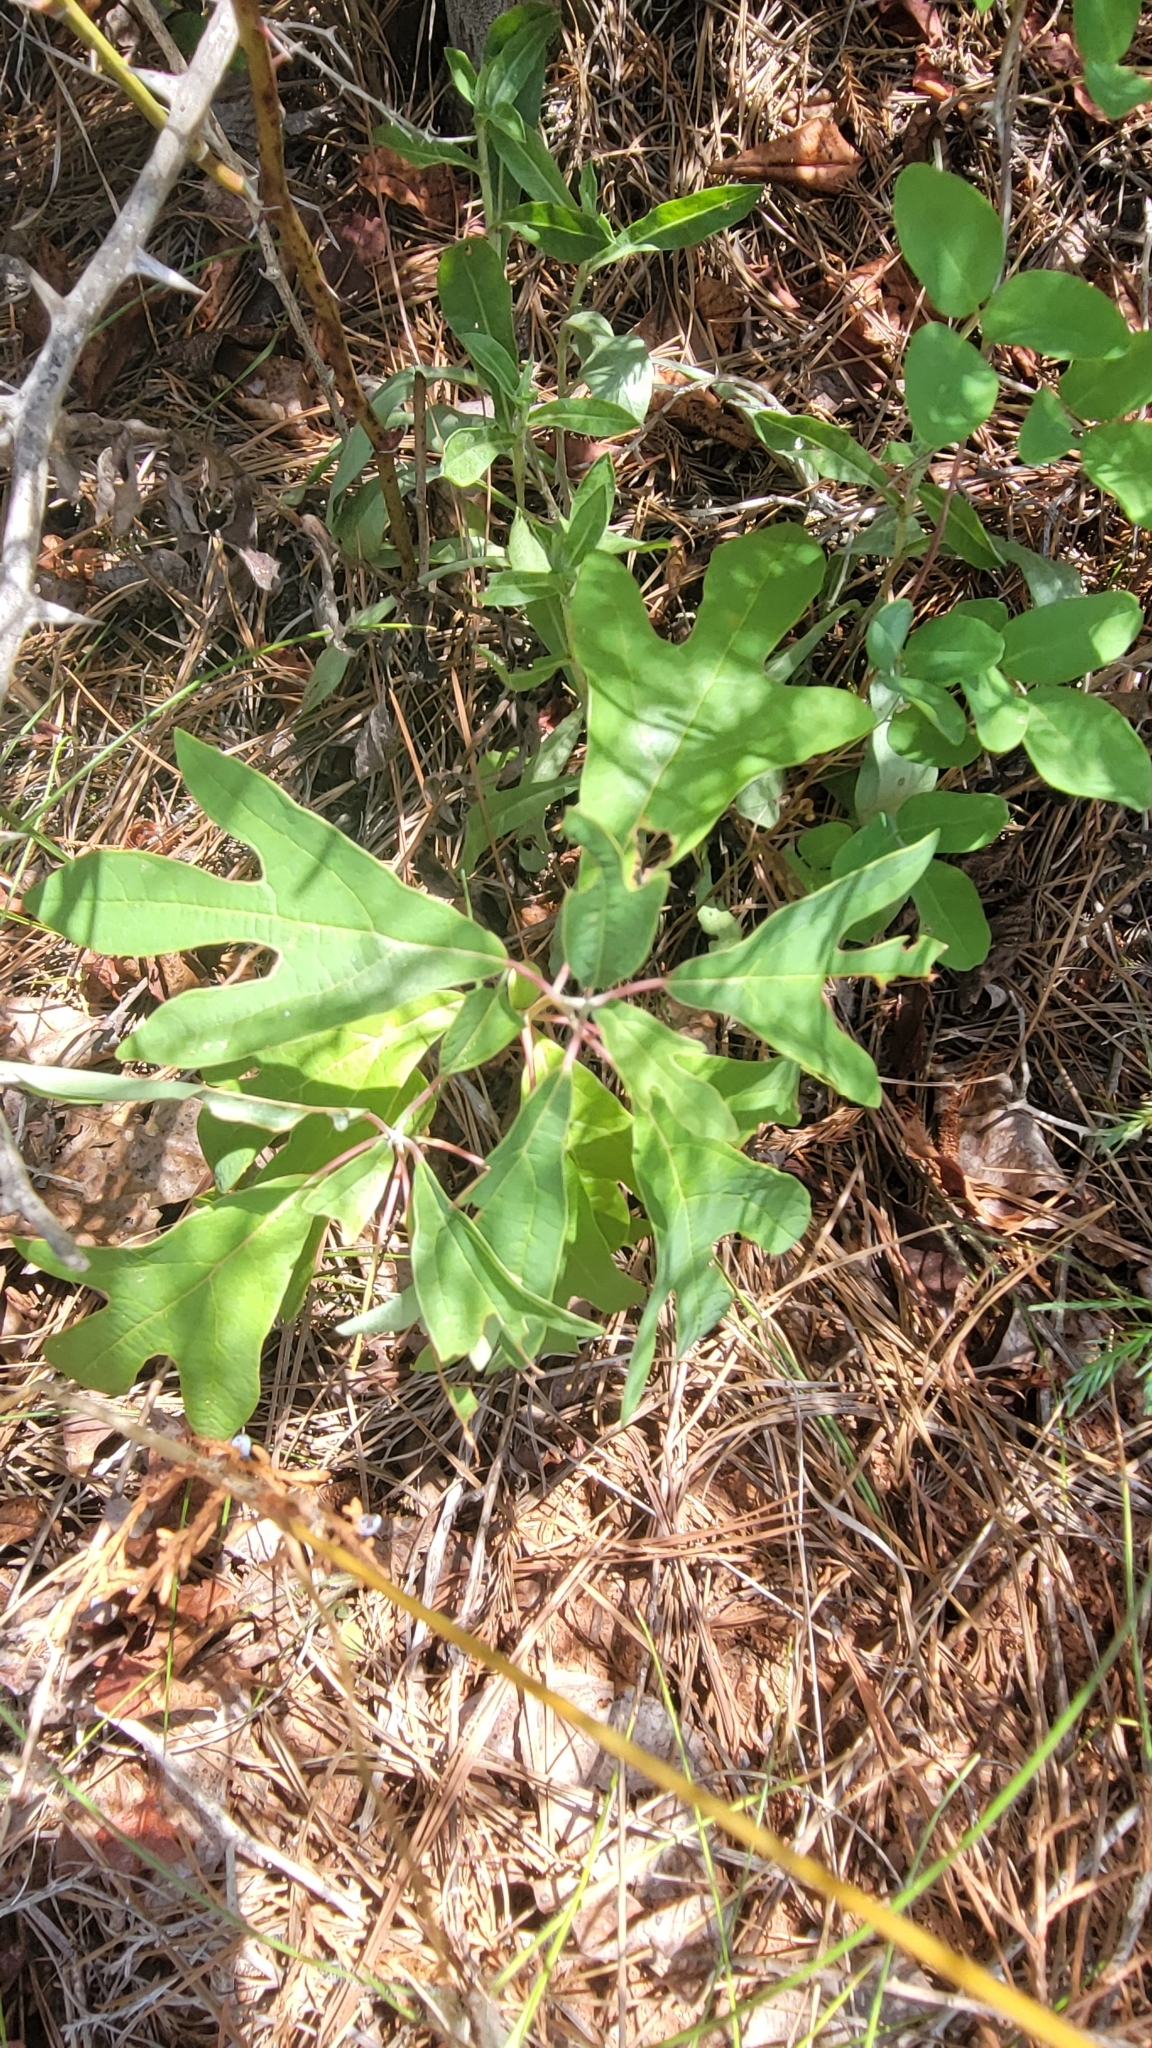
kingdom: Plantae
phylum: Tracheophyta
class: Magnoliopsida
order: Laurales
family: Lauraceae
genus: Sassafras
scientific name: Sassafras albidum
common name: Sassafras
